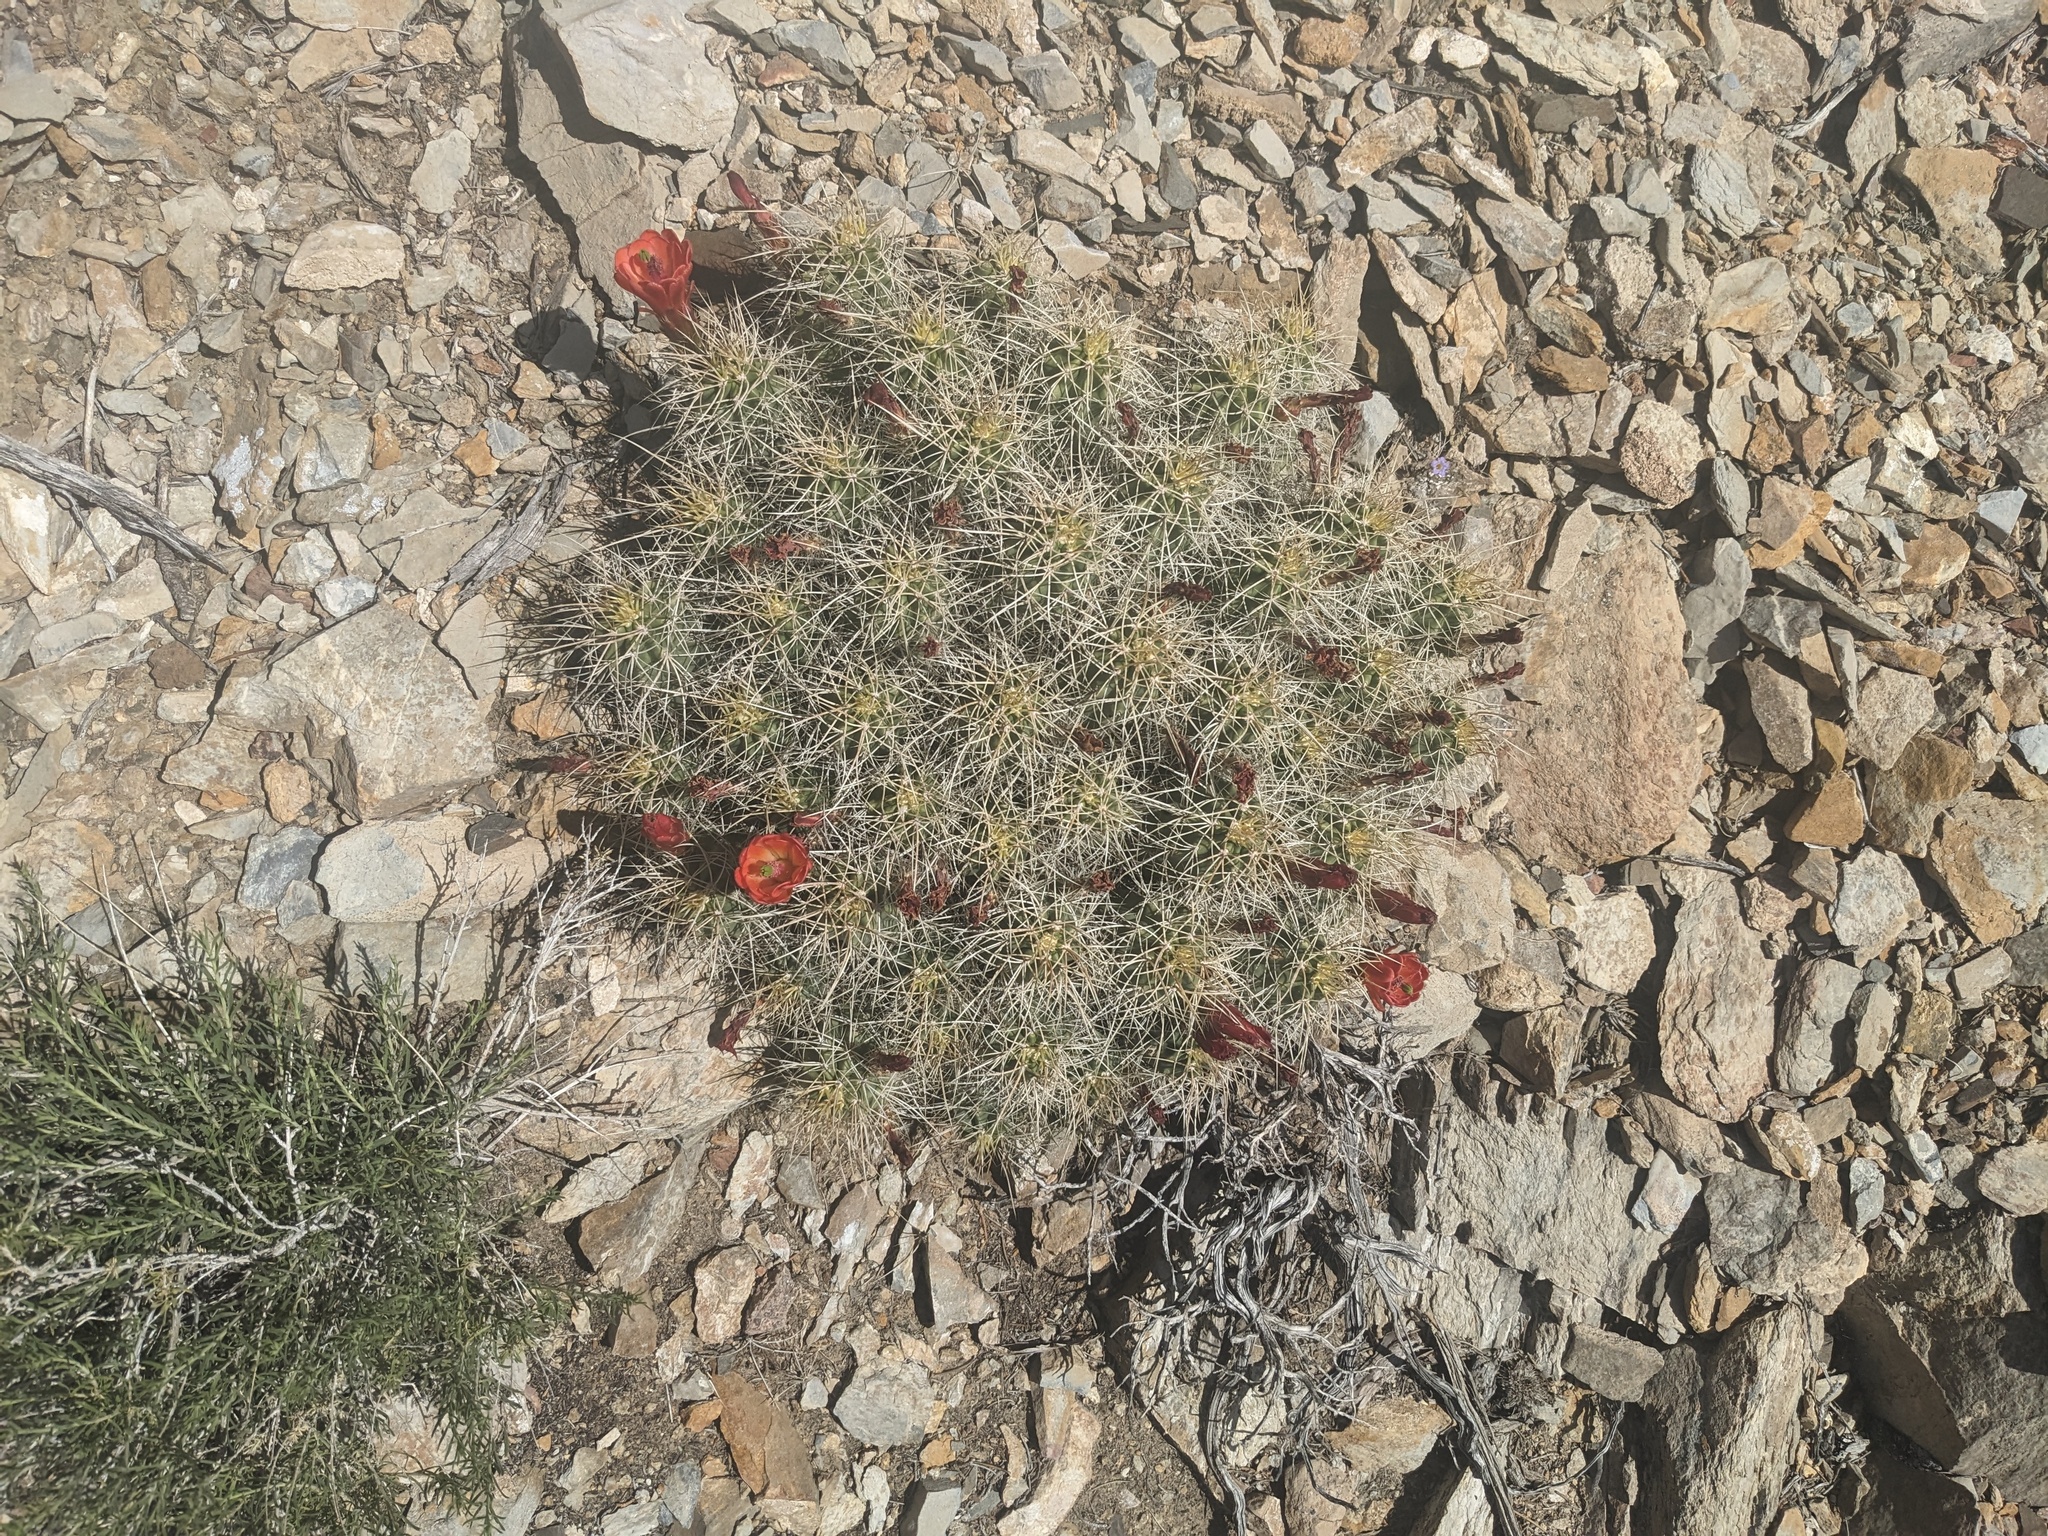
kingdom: Plantae
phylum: Tracheophyta
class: Magnoliopsida
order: Caryophyllales
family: Cactaceae
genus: Echinocereus
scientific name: Echinocereus triglochidiatus
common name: Claretcup hedgehog
